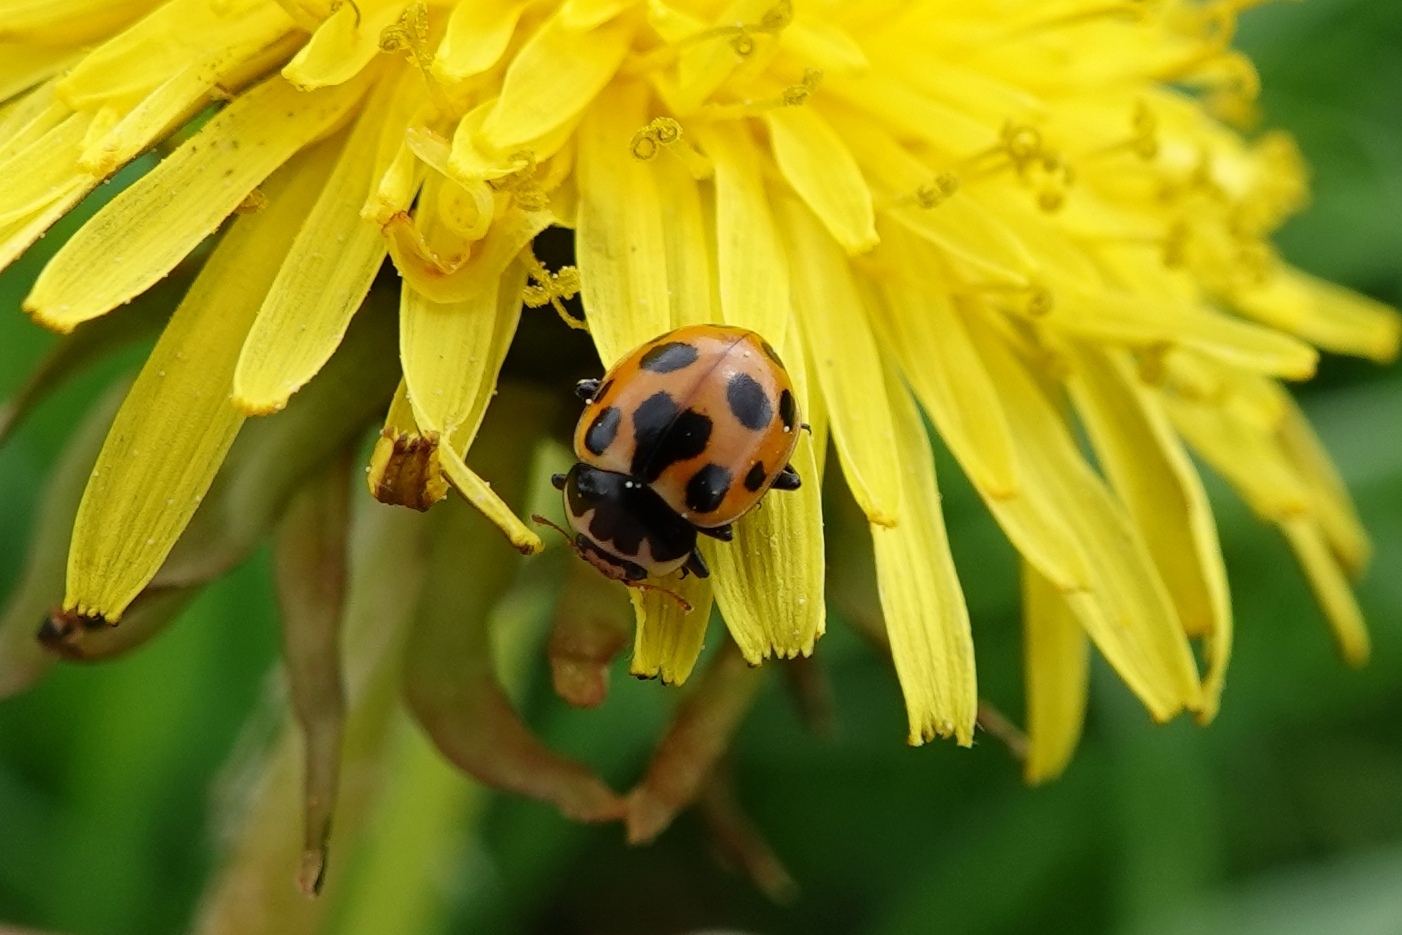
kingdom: Animalia
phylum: Arthropoda
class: Insecta
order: Coleoptera
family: Coccinellidae
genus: Ceratomegilla
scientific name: Ceratomegilla notata
